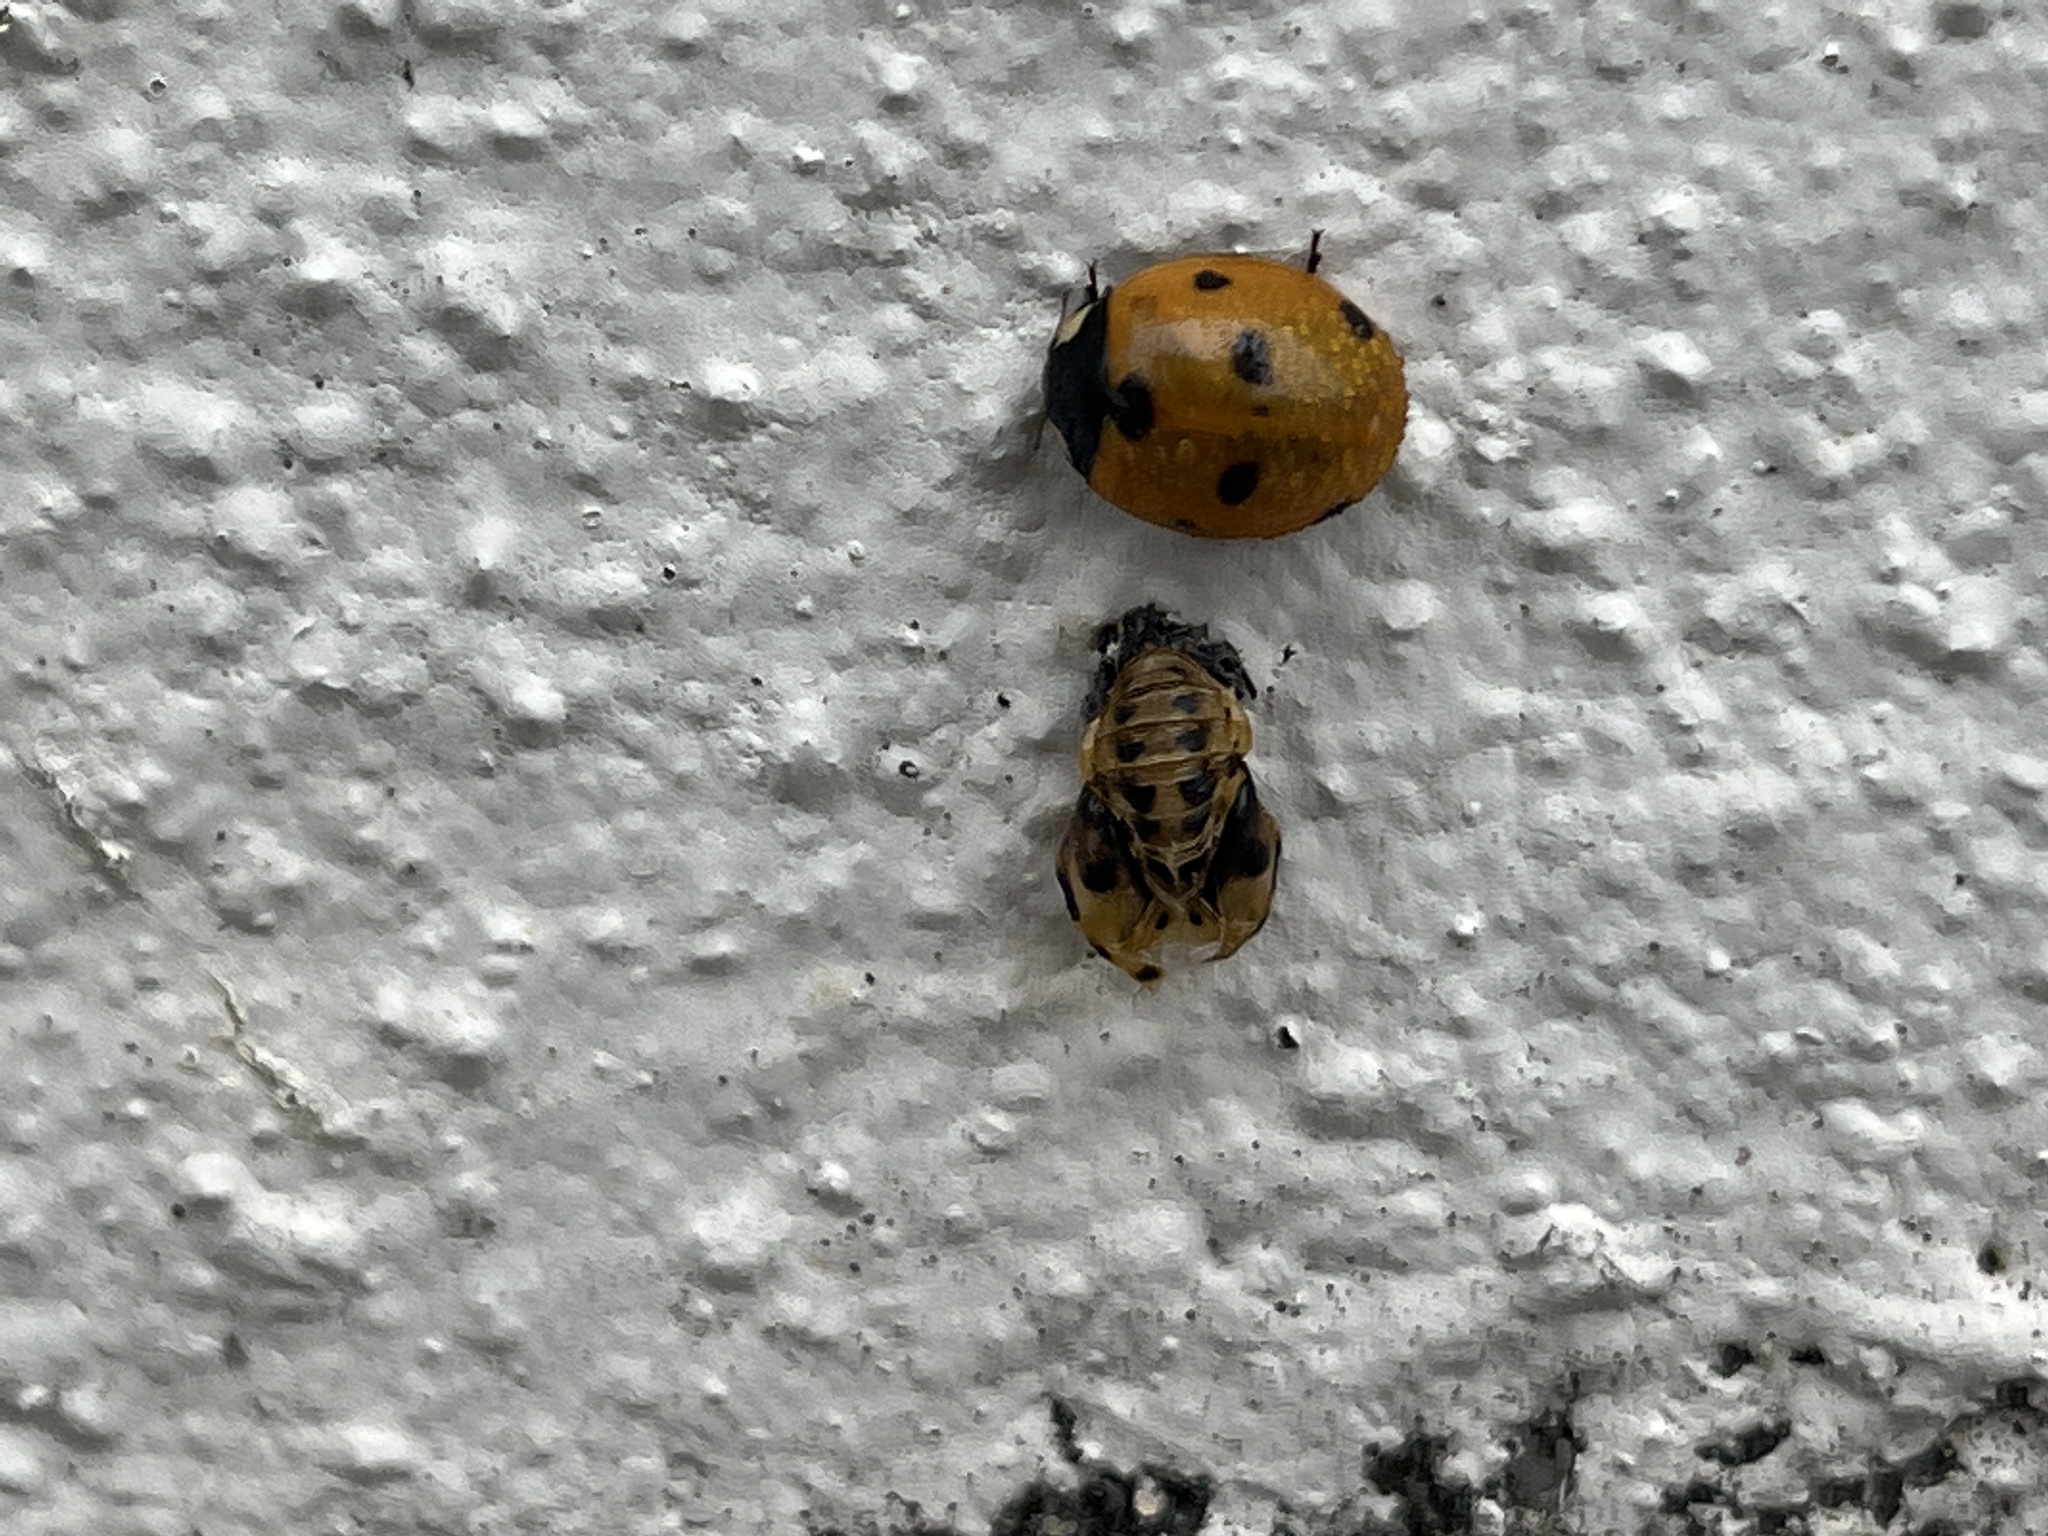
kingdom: Animalia
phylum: Arthropoda
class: Insecta
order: Coleoptera
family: Coccinellidae
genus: Coccinella
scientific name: Coccinella septempunctata
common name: Sevenspotted lady beetle
